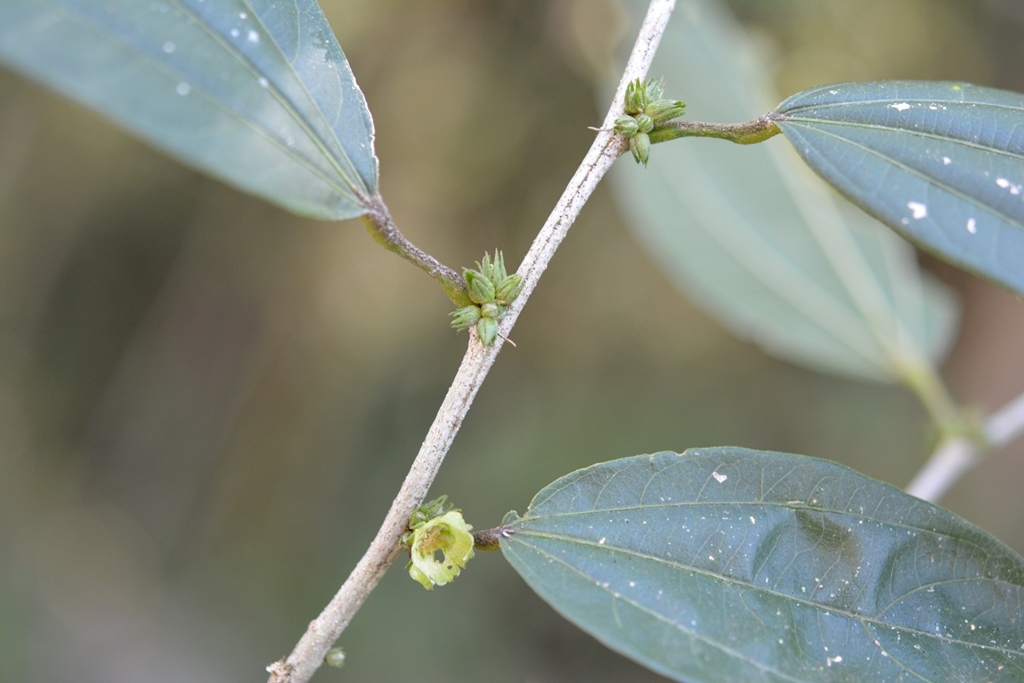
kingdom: Plantae
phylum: Tracheophyta
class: Magnoliopsida
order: Malvales
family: Malvaceae
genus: Hibiscus
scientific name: Hibiscus purpusii
